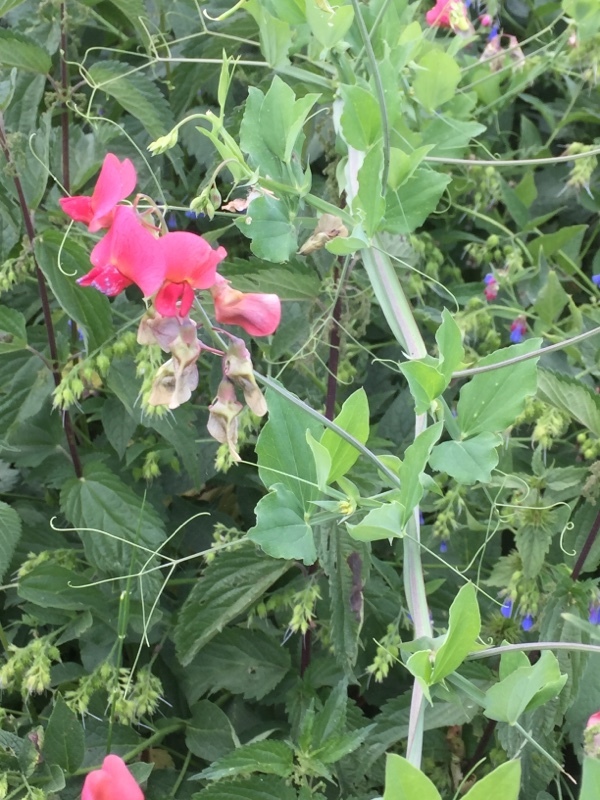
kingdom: Plantae
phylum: Tracheophyta
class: Magnoliopsida
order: Fabales
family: Fabaceae
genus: Lathyrus
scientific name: Lathyrus rotundifolius
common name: Round-leaf vetchling
